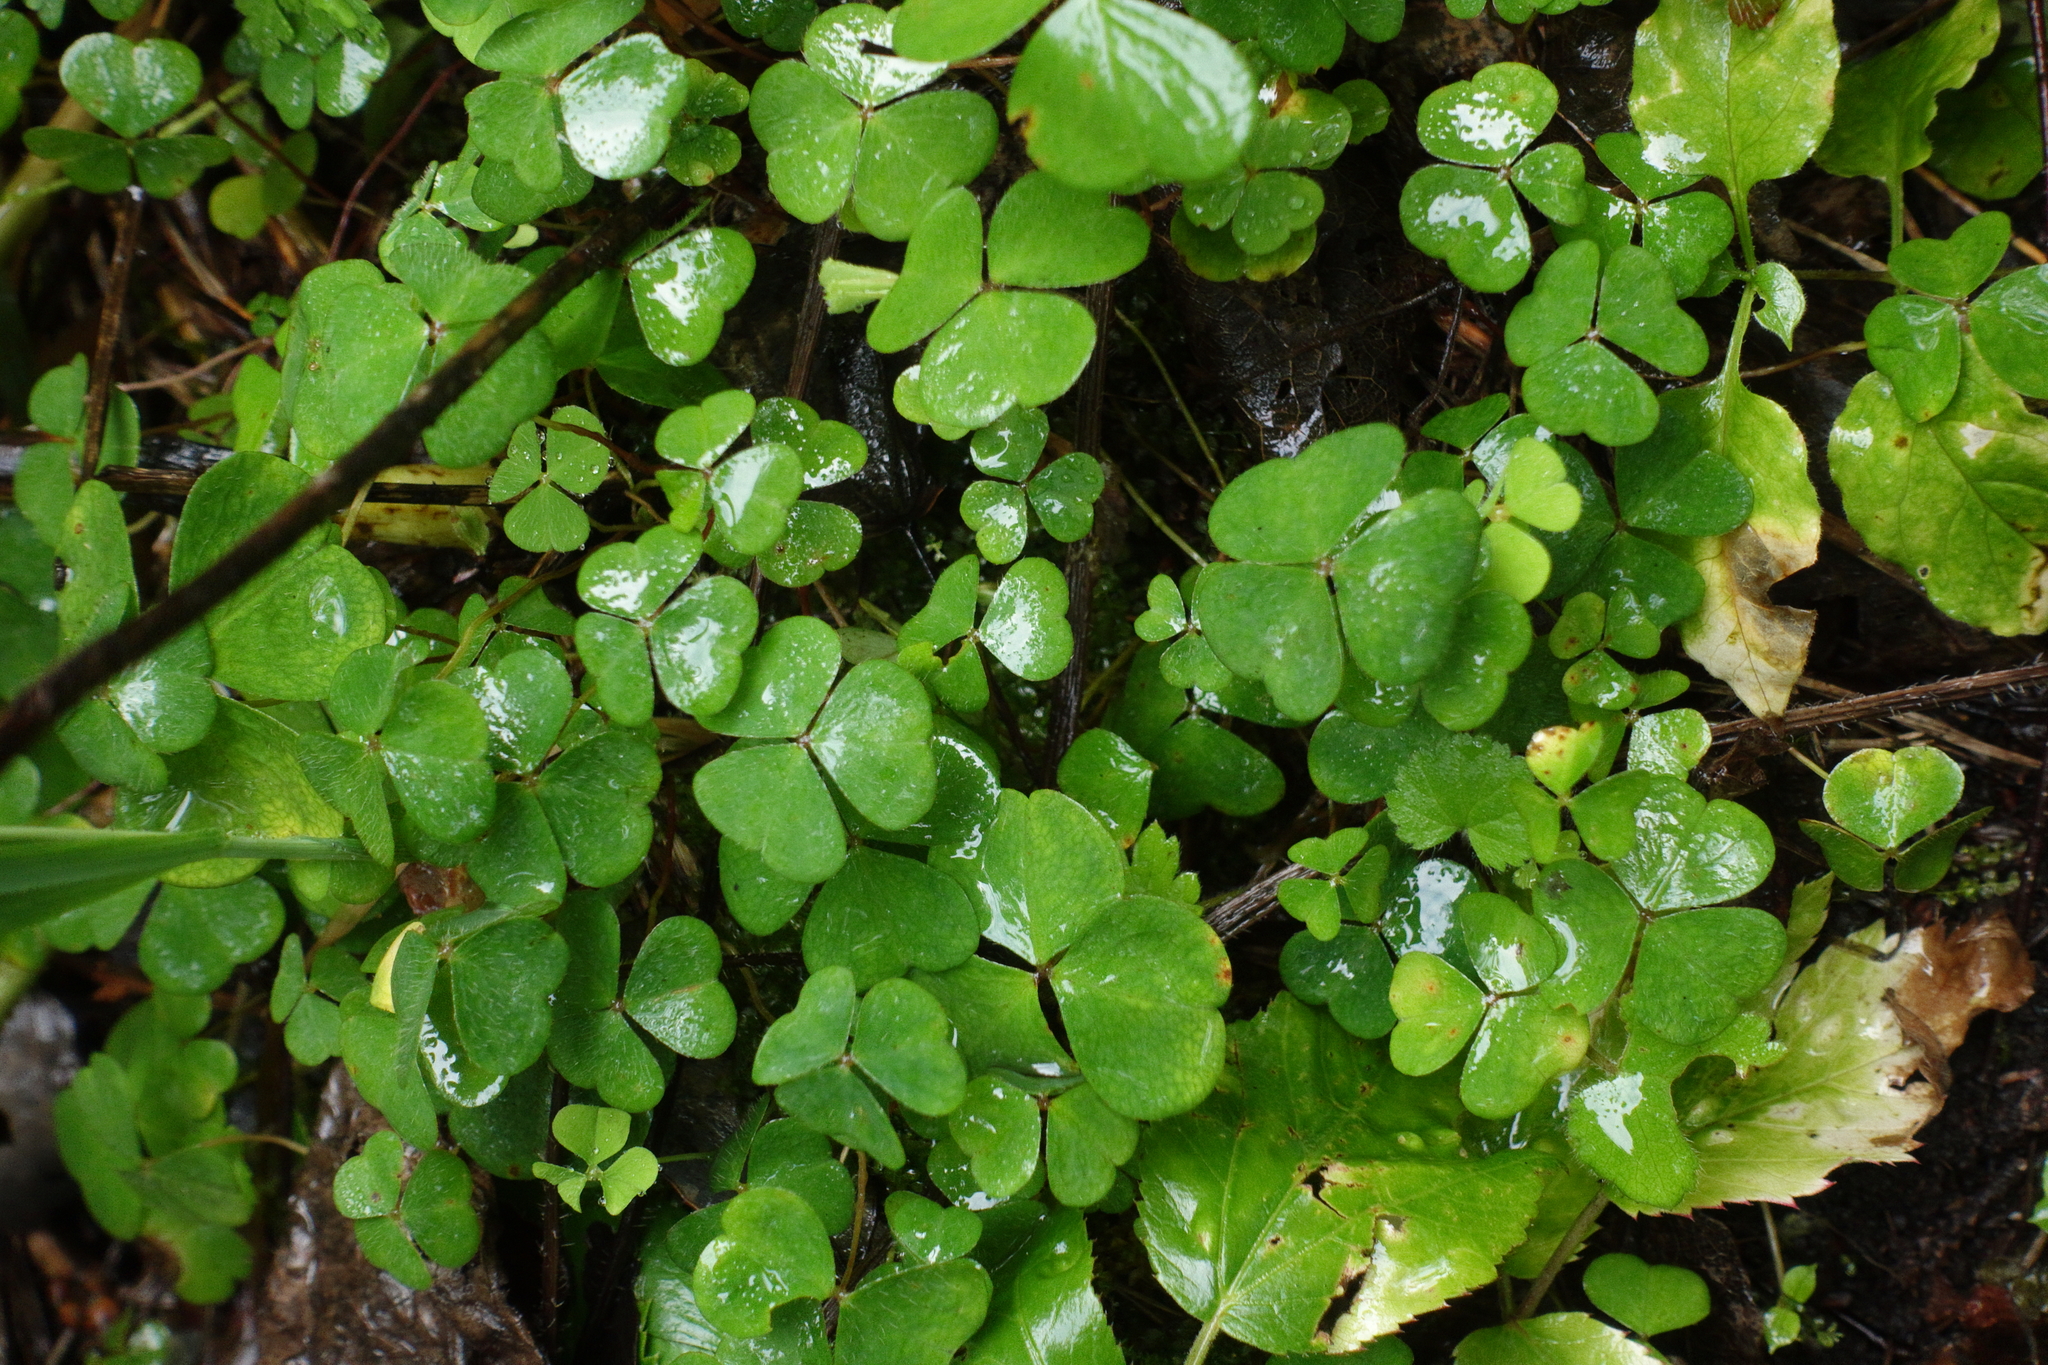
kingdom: Plantae
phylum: Tracheophyta
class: Magnoliopsida
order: Oxalidales
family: Oxalidaceae
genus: Oxalis
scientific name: Oxalis acetosella
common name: Wood-sorrel
